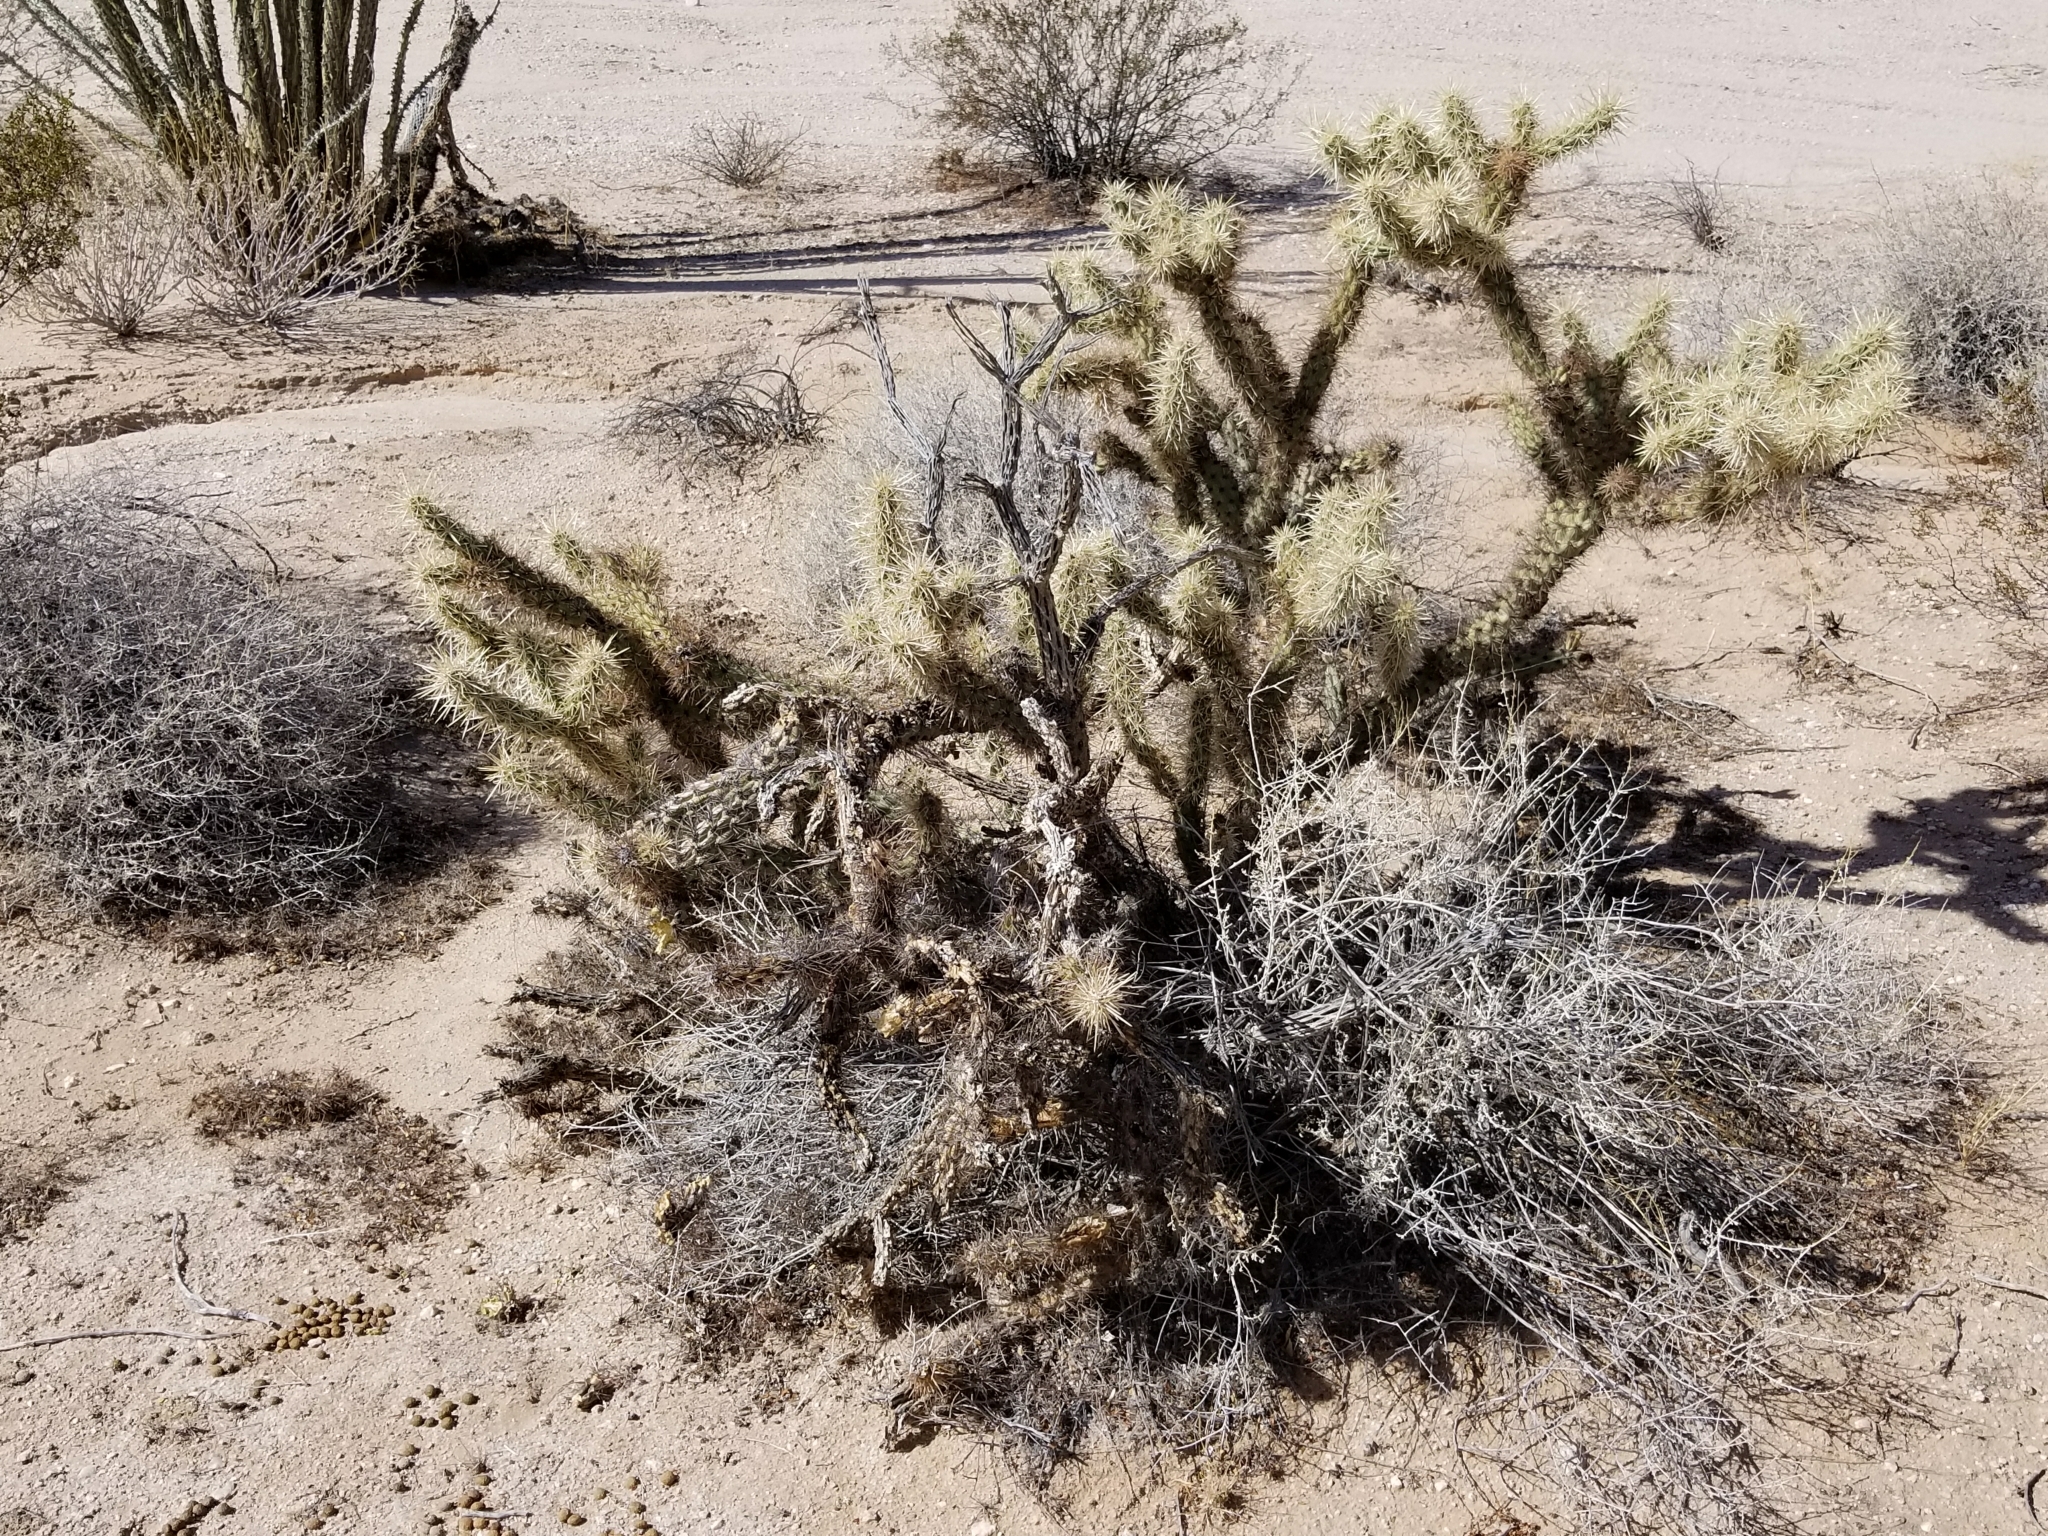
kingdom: Plantae
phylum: Tracheophyta
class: Magnoliopsida
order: Caryophyllales
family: Cactaceae
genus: Cylindropuntia
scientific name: Cylindropuntia acanthocarpa
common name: Buckhorn cholla
